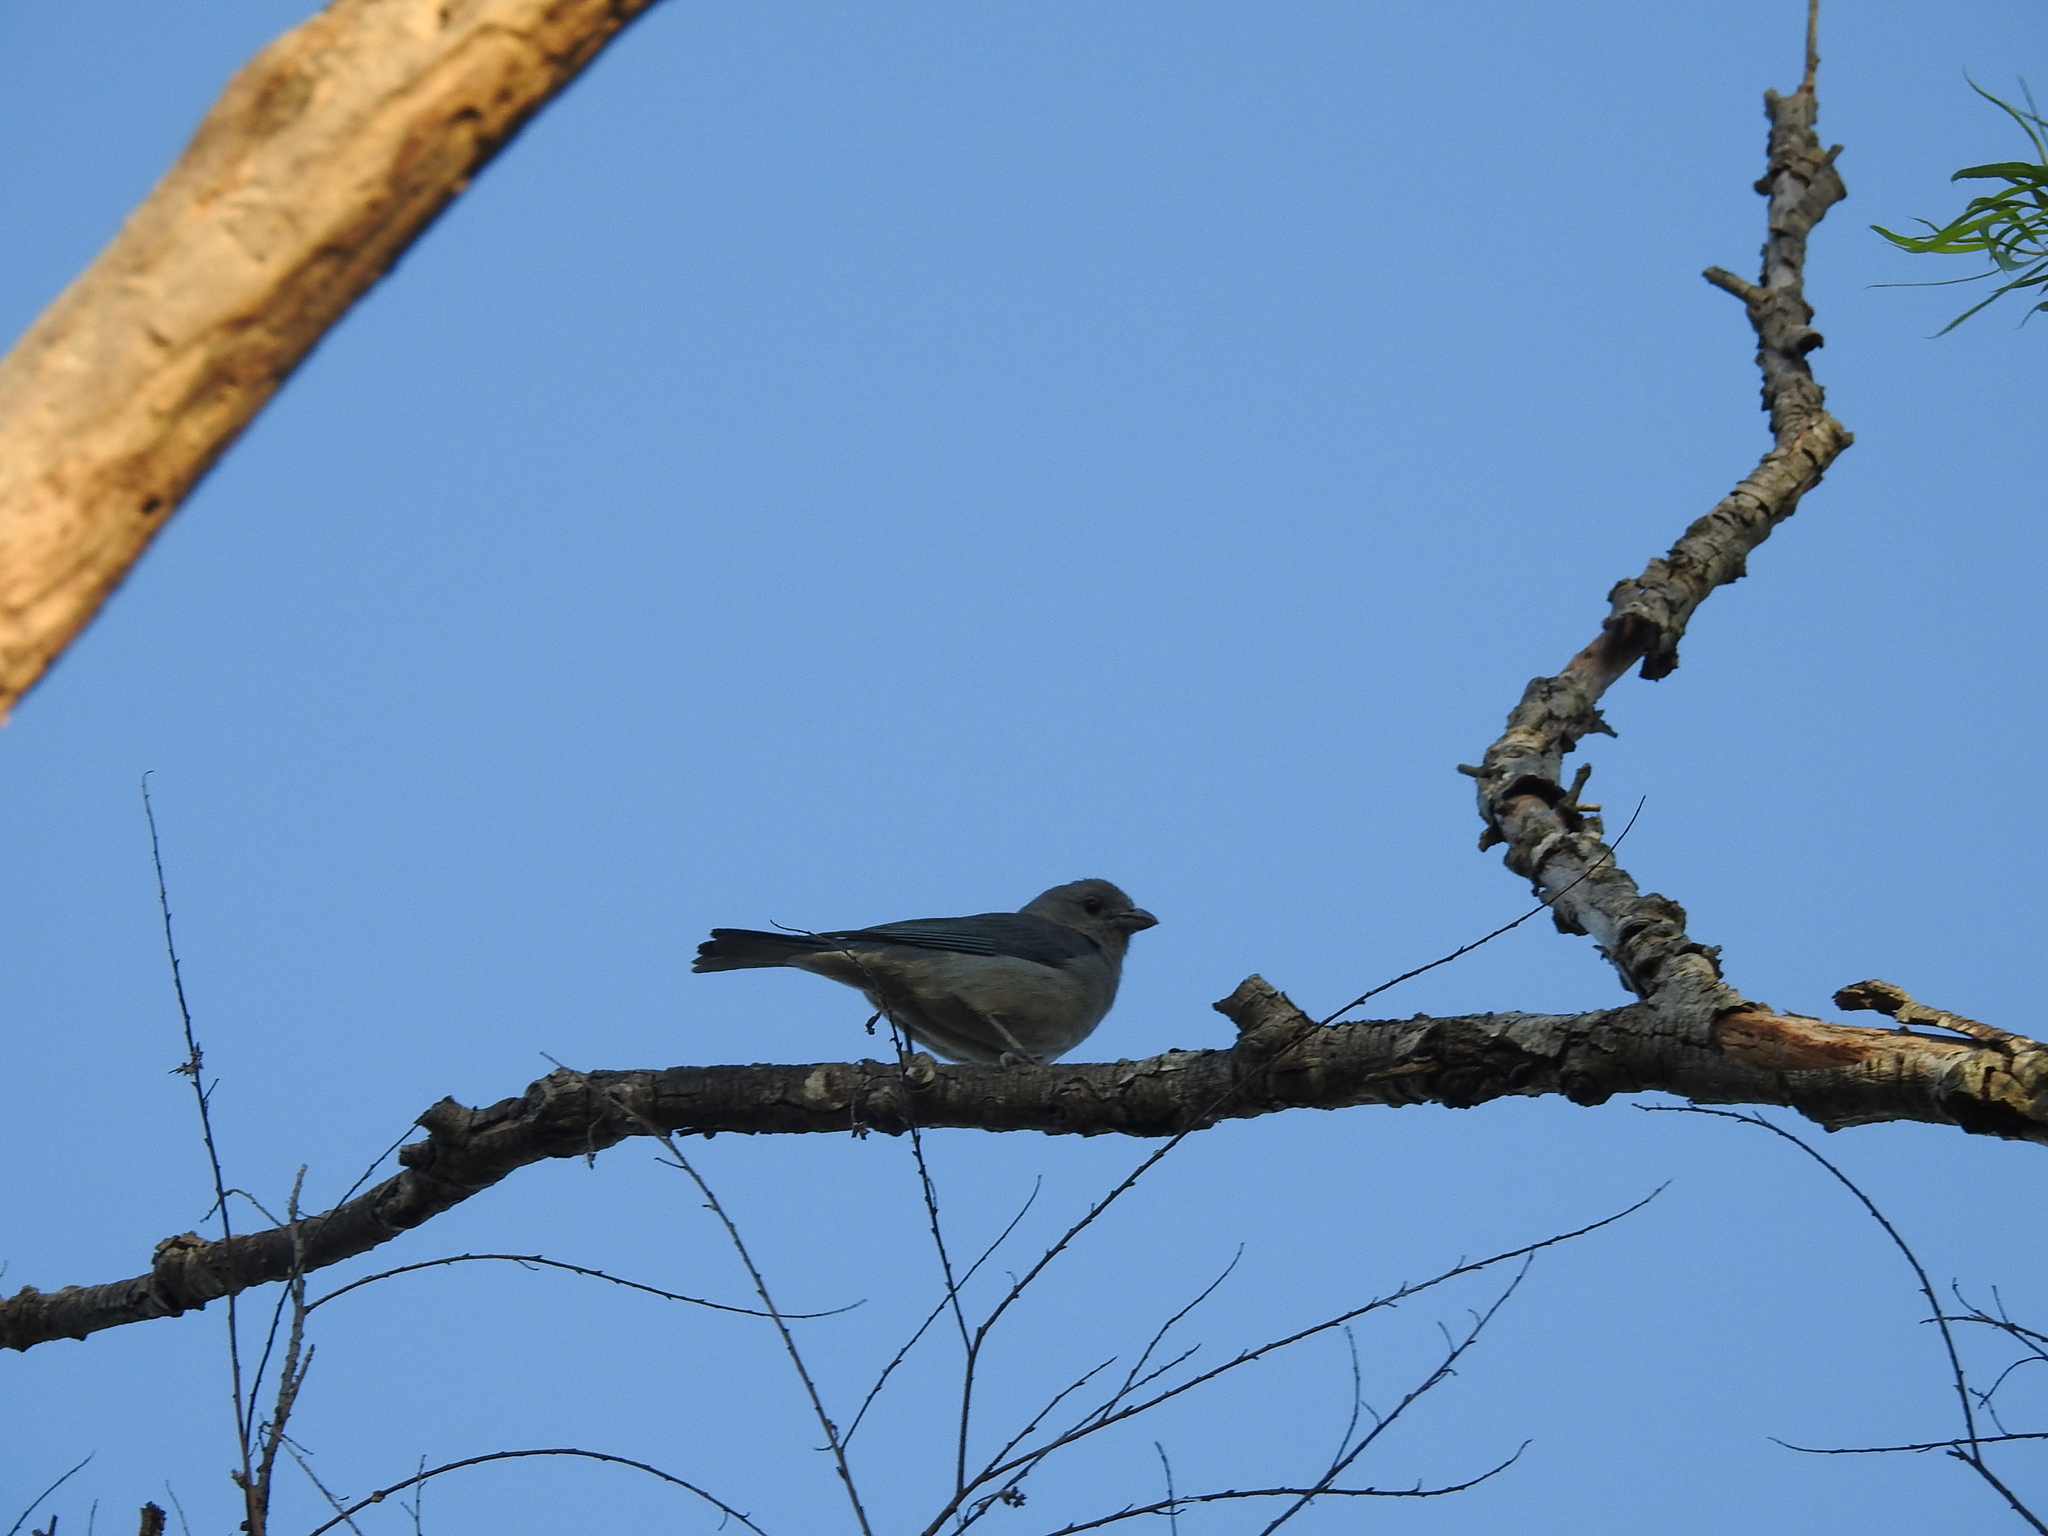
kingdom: Animalia
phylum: Chordata
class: Aves
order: Passeriformes
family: Thraupidae
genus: Thraupis
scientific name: Thraupis sayaca
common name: Sayaca tanager
